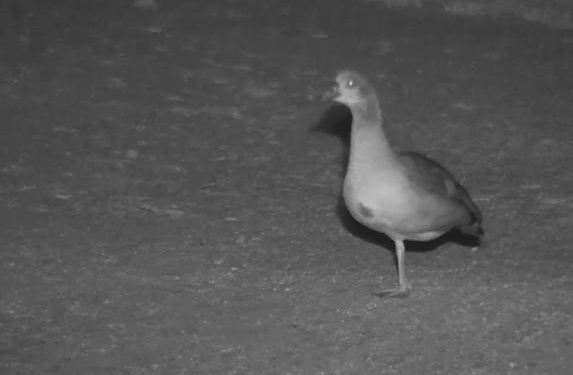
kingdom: Animalia
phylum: Chordata
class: Aves
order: Anseriformes
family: Anatidae
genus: Alopochen
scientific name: Alopochen aegyptiaca
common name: Egyptian goose
